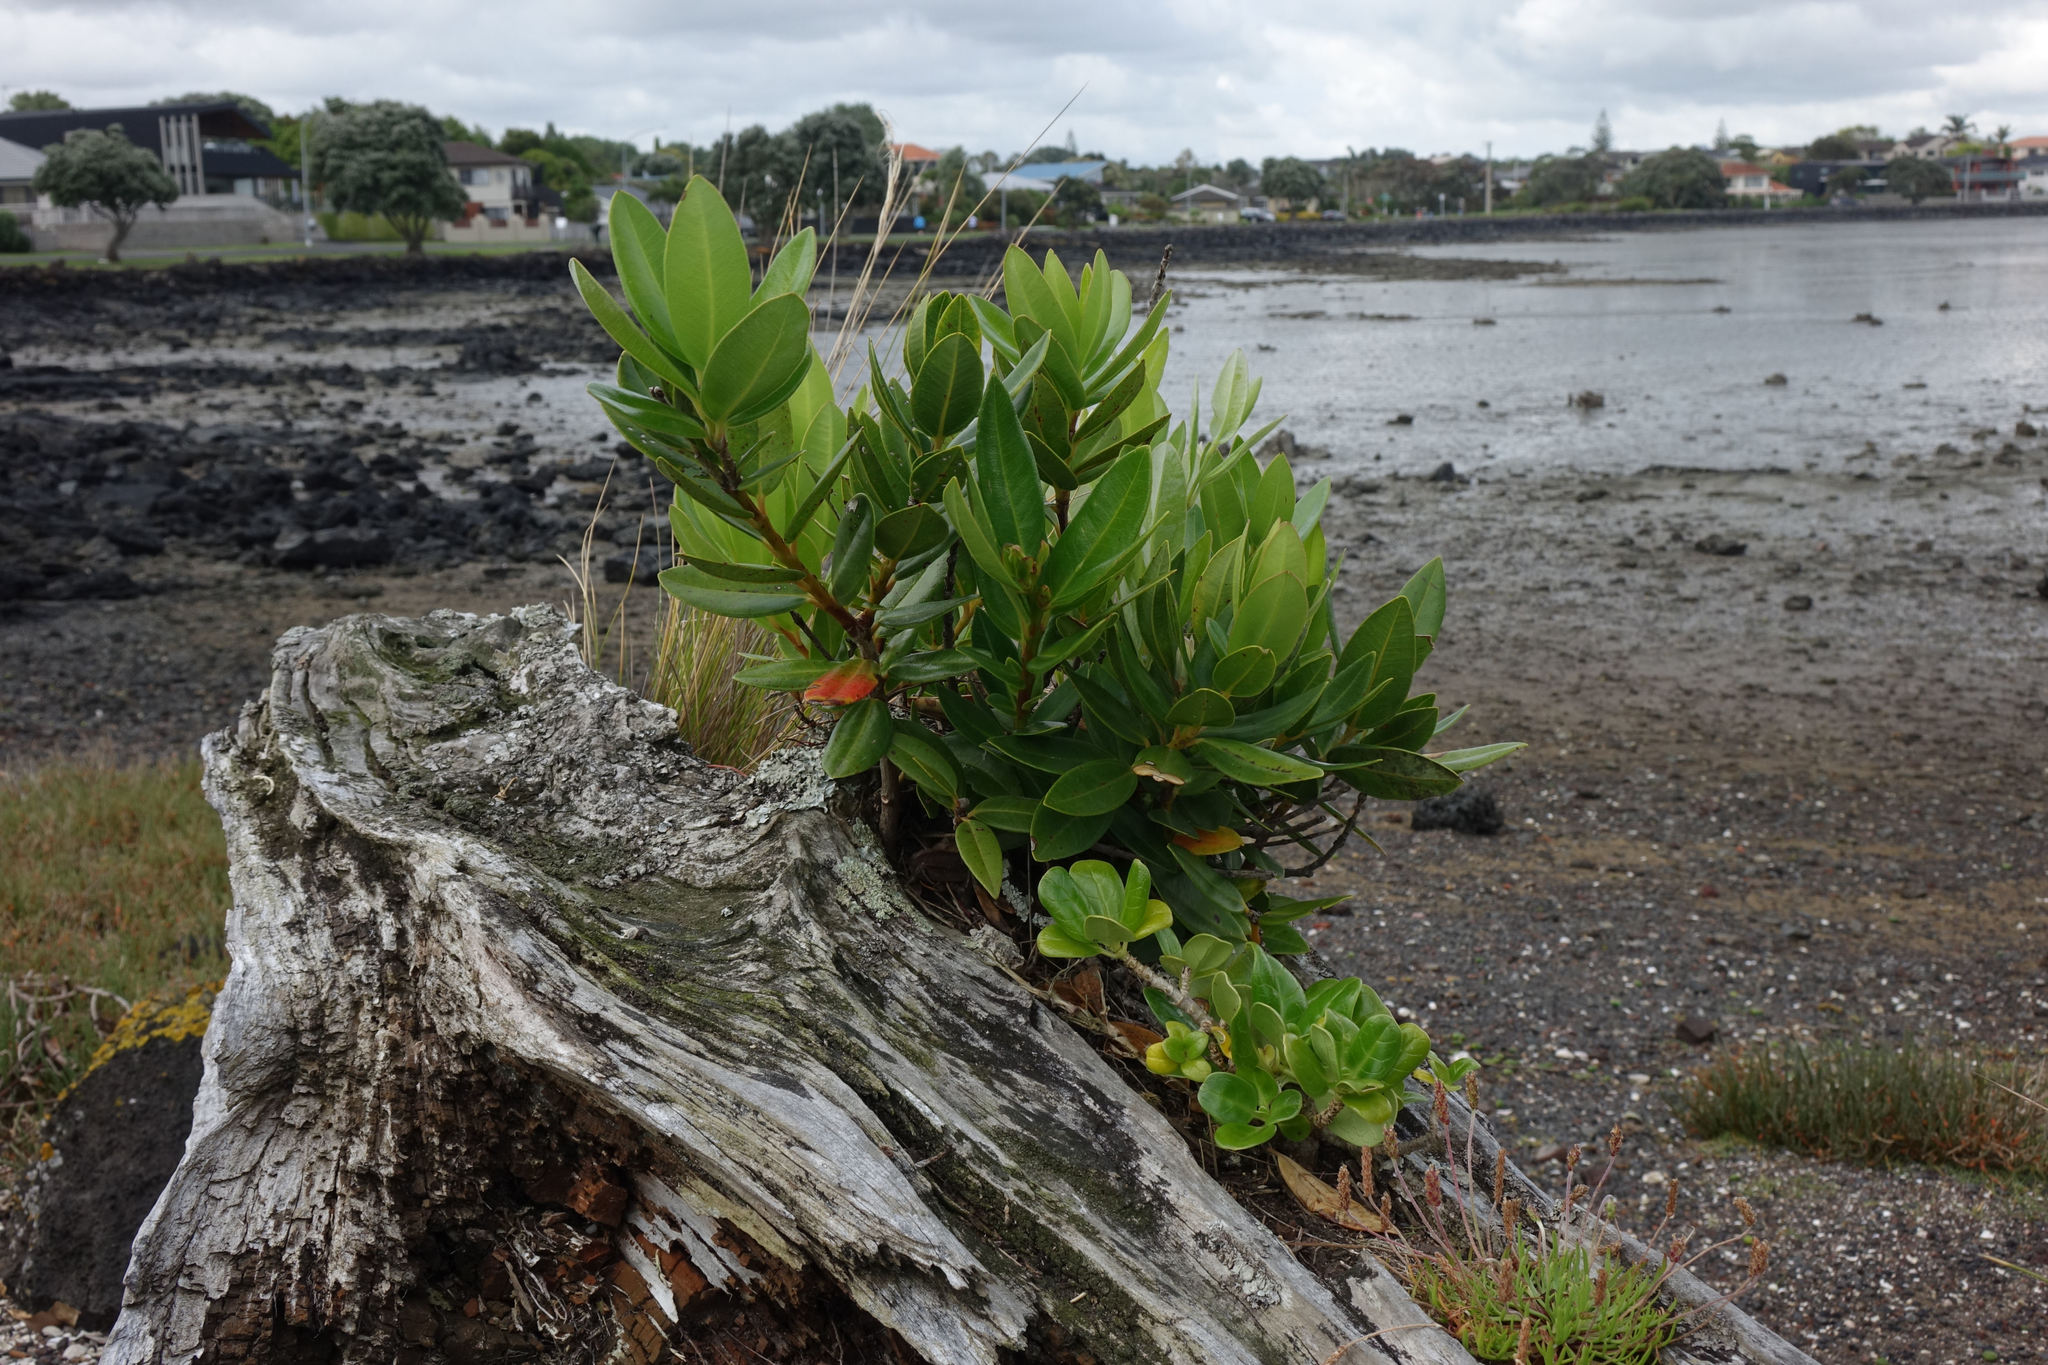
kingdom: Plantae
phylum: Tracheophyta
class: Magnoliopsida
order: Myrtales
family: Myrtaceae
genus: Metrosideros
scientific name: Metrosideros excelsa
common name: New zealand christmastree
